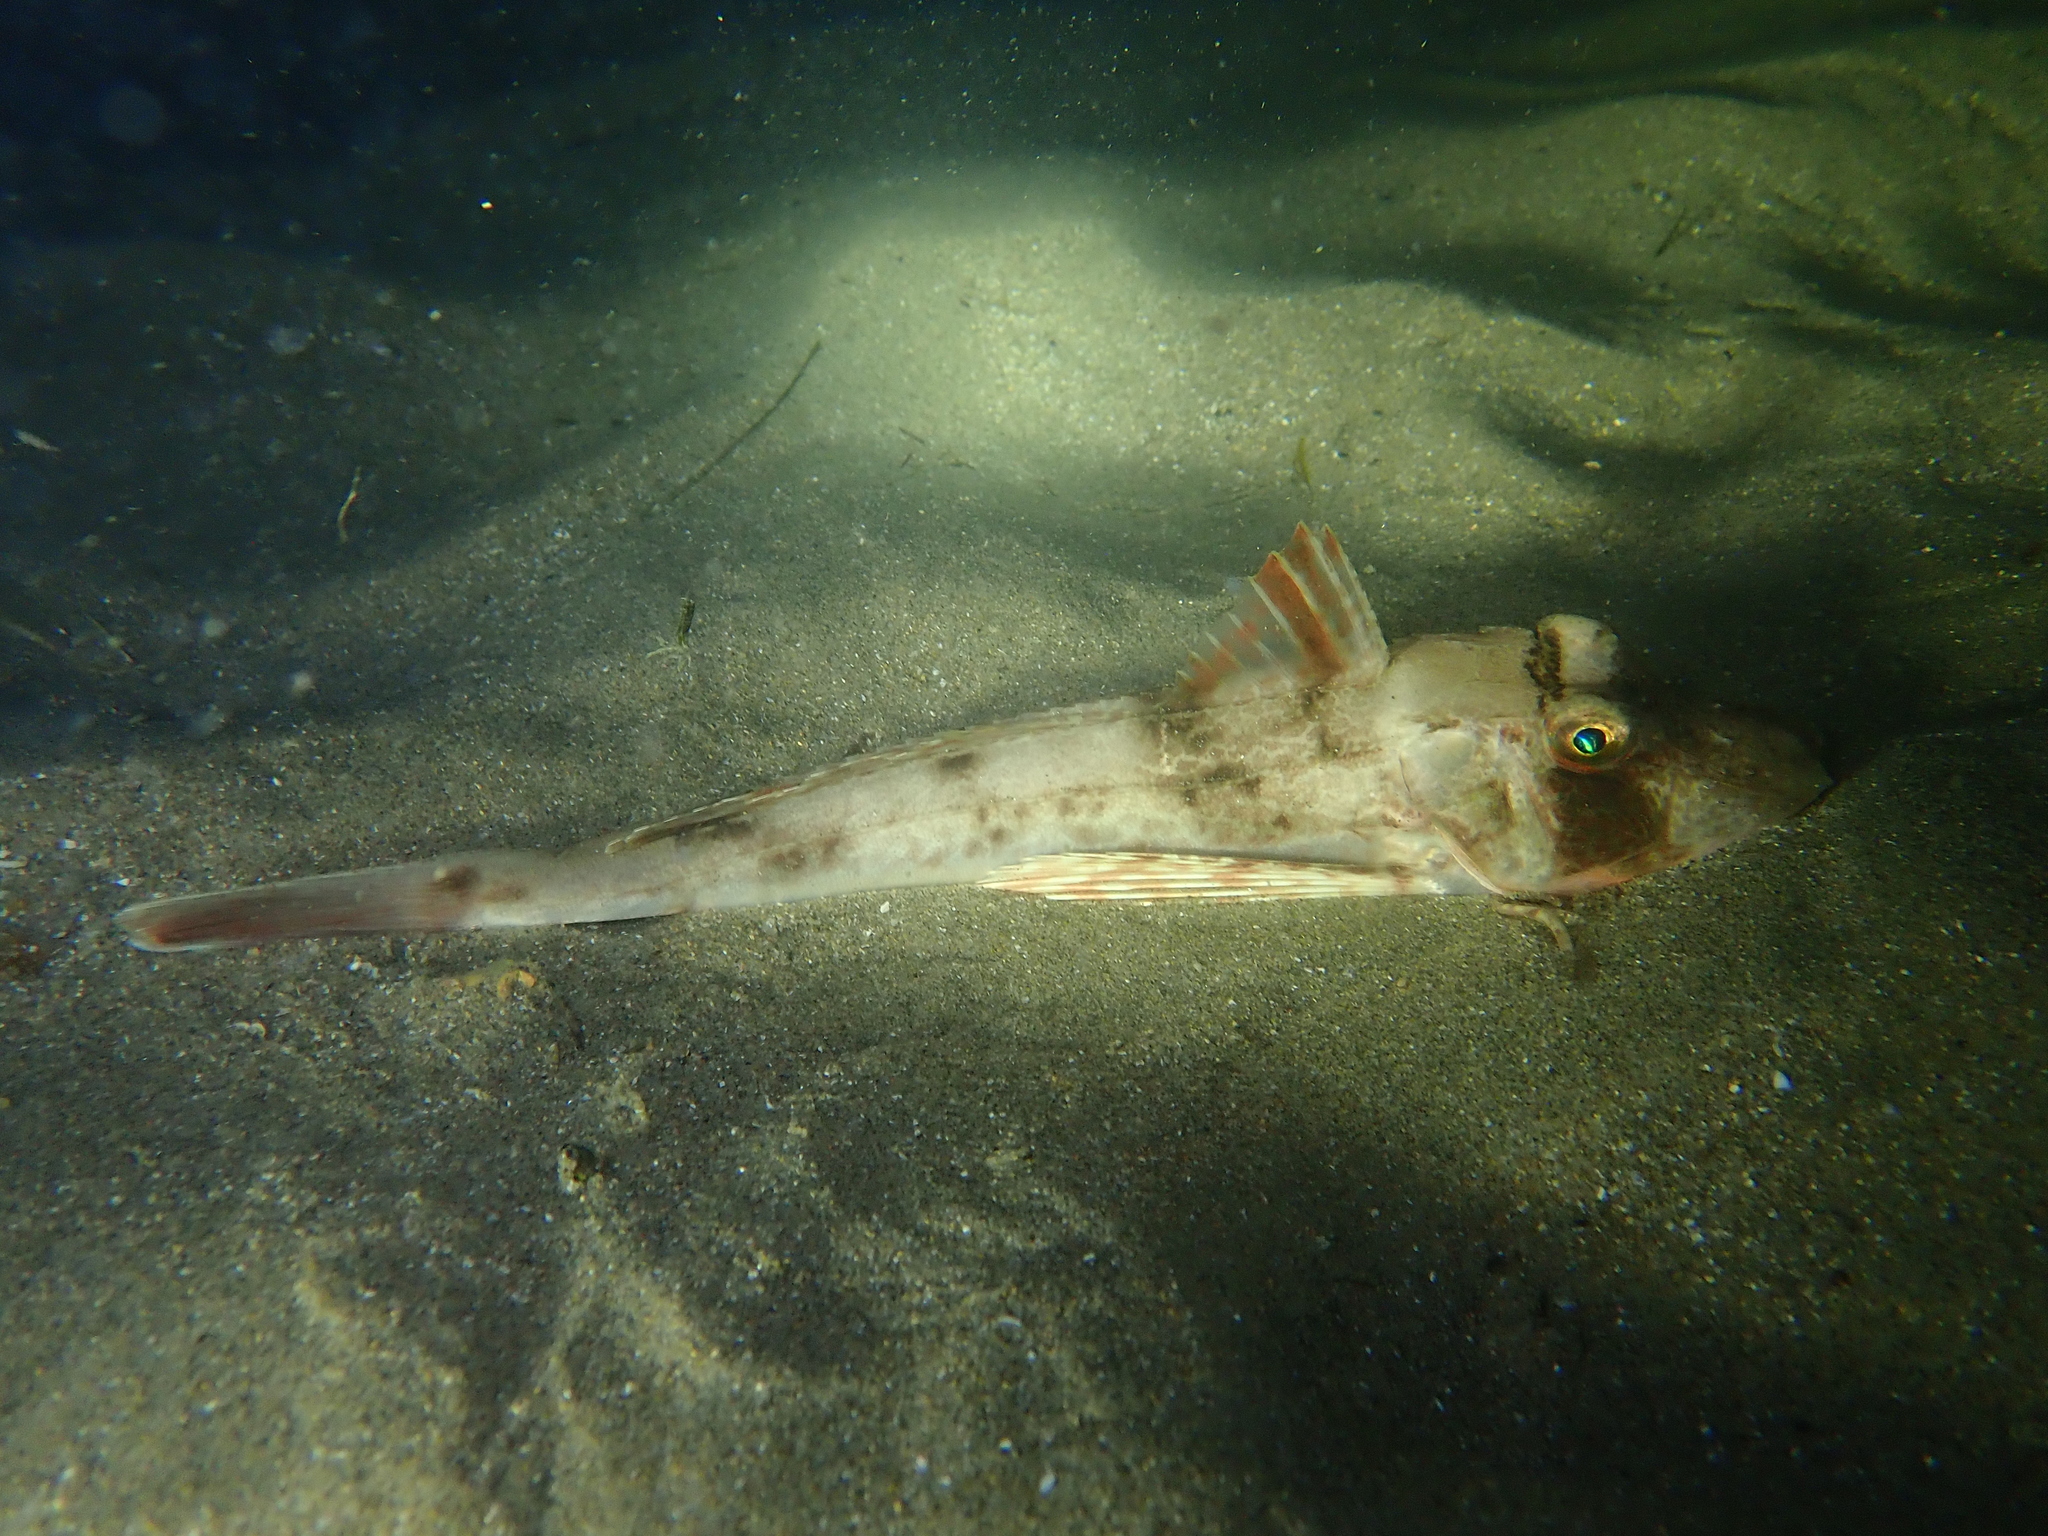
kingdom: Animalia
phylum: Chordata
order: Scorpaeniformes
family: Triglidae
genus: Chelidonichthys
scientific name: Chelidonichthys lucerna
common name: Tub gurnard
